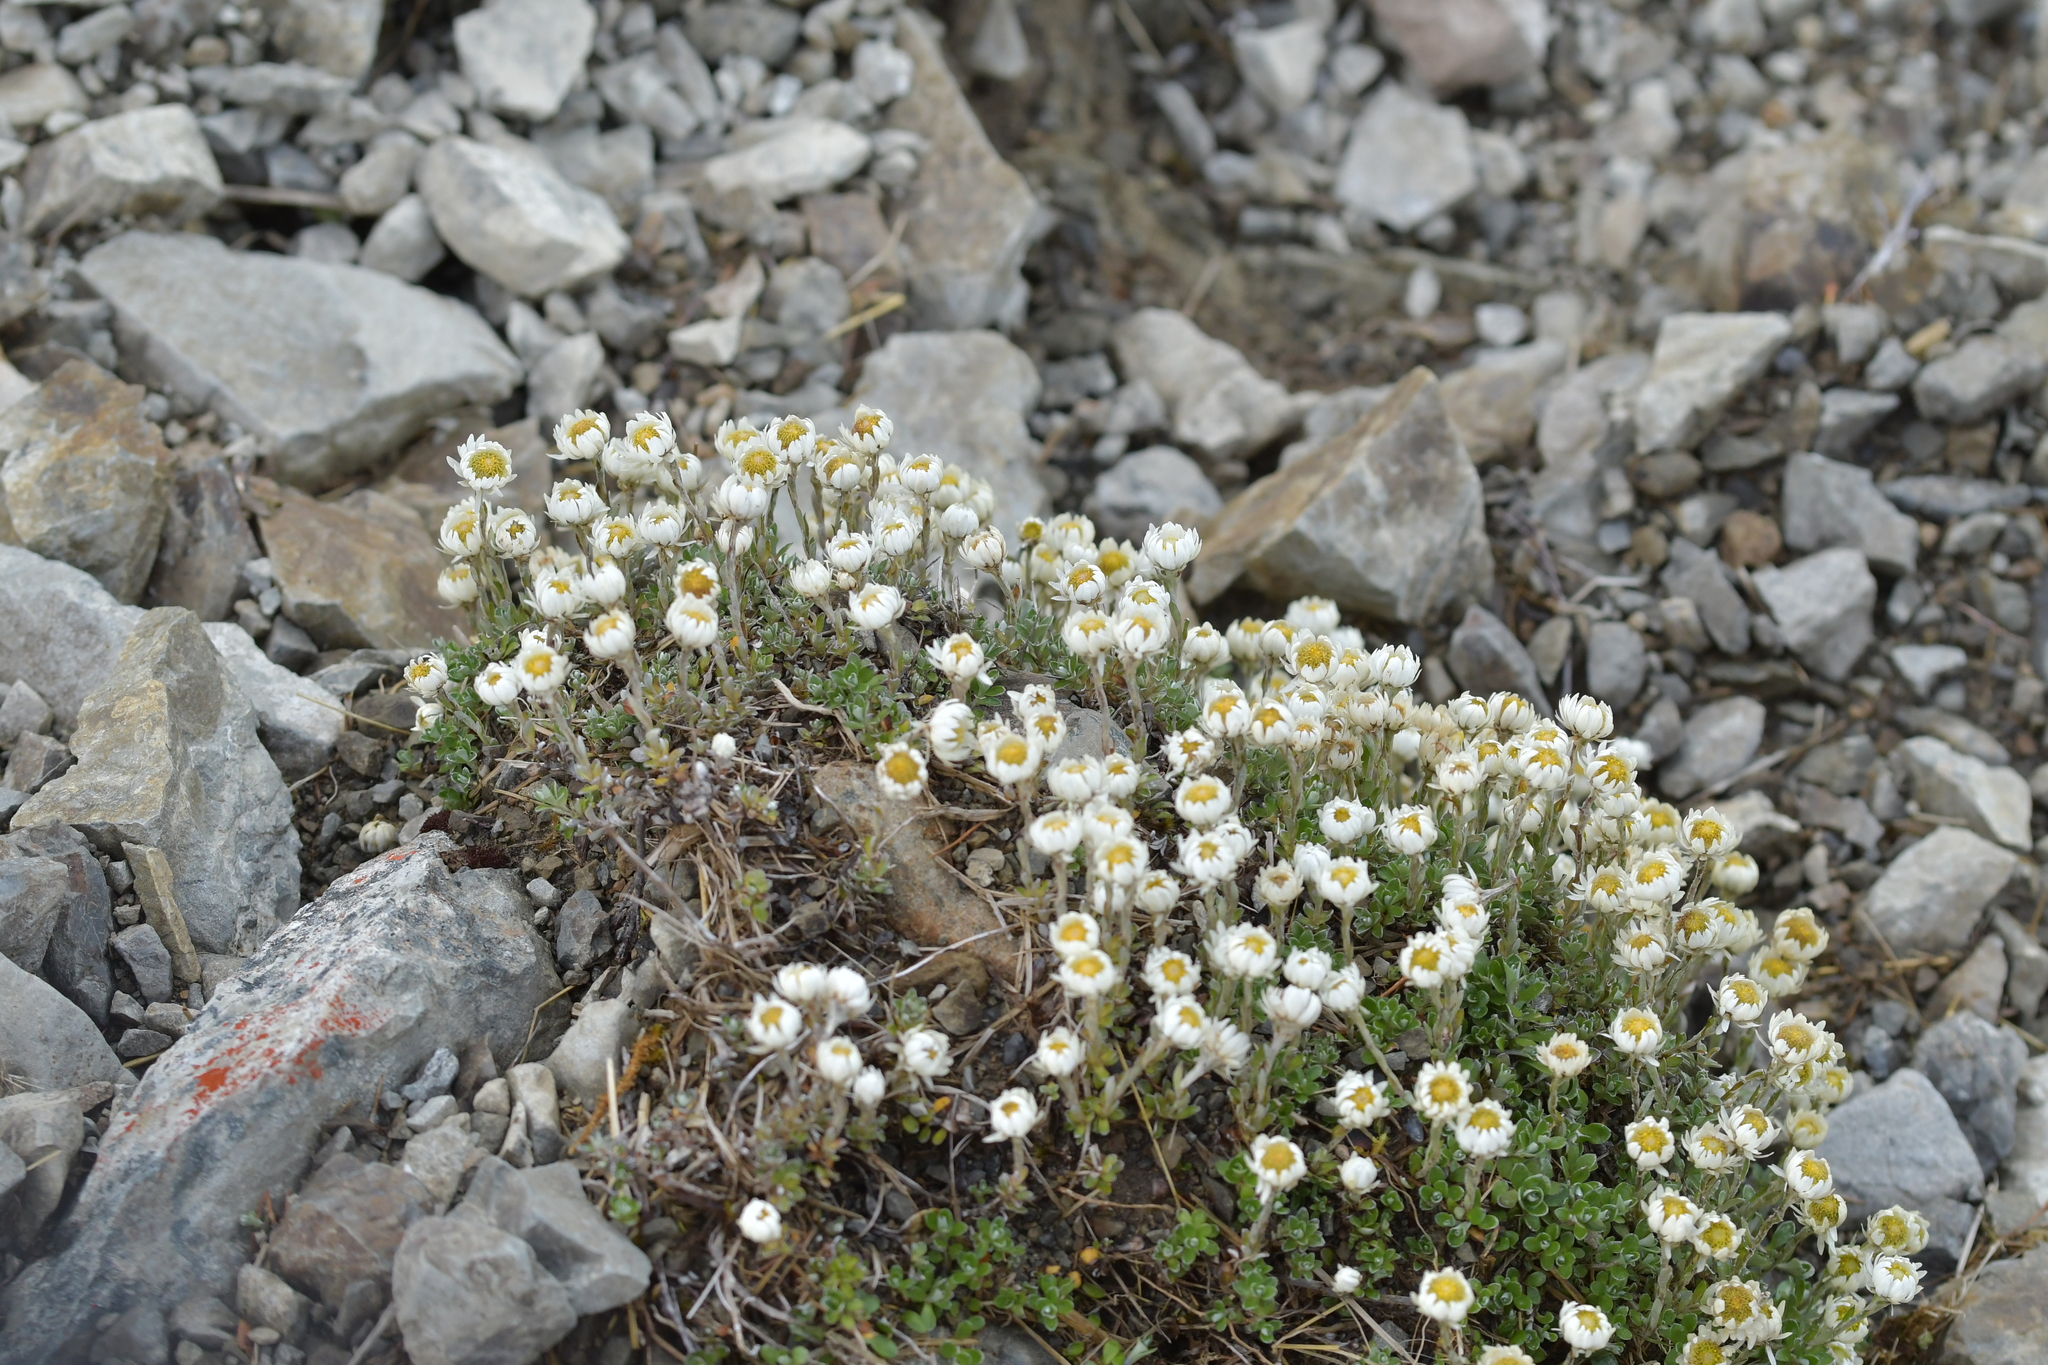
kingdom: Plantae
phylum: Tracheophyta
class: Magnoliopsida
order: Asterales
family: Asteraceae
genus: Anaphalioides
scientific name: Anaphalioides bellidioides
